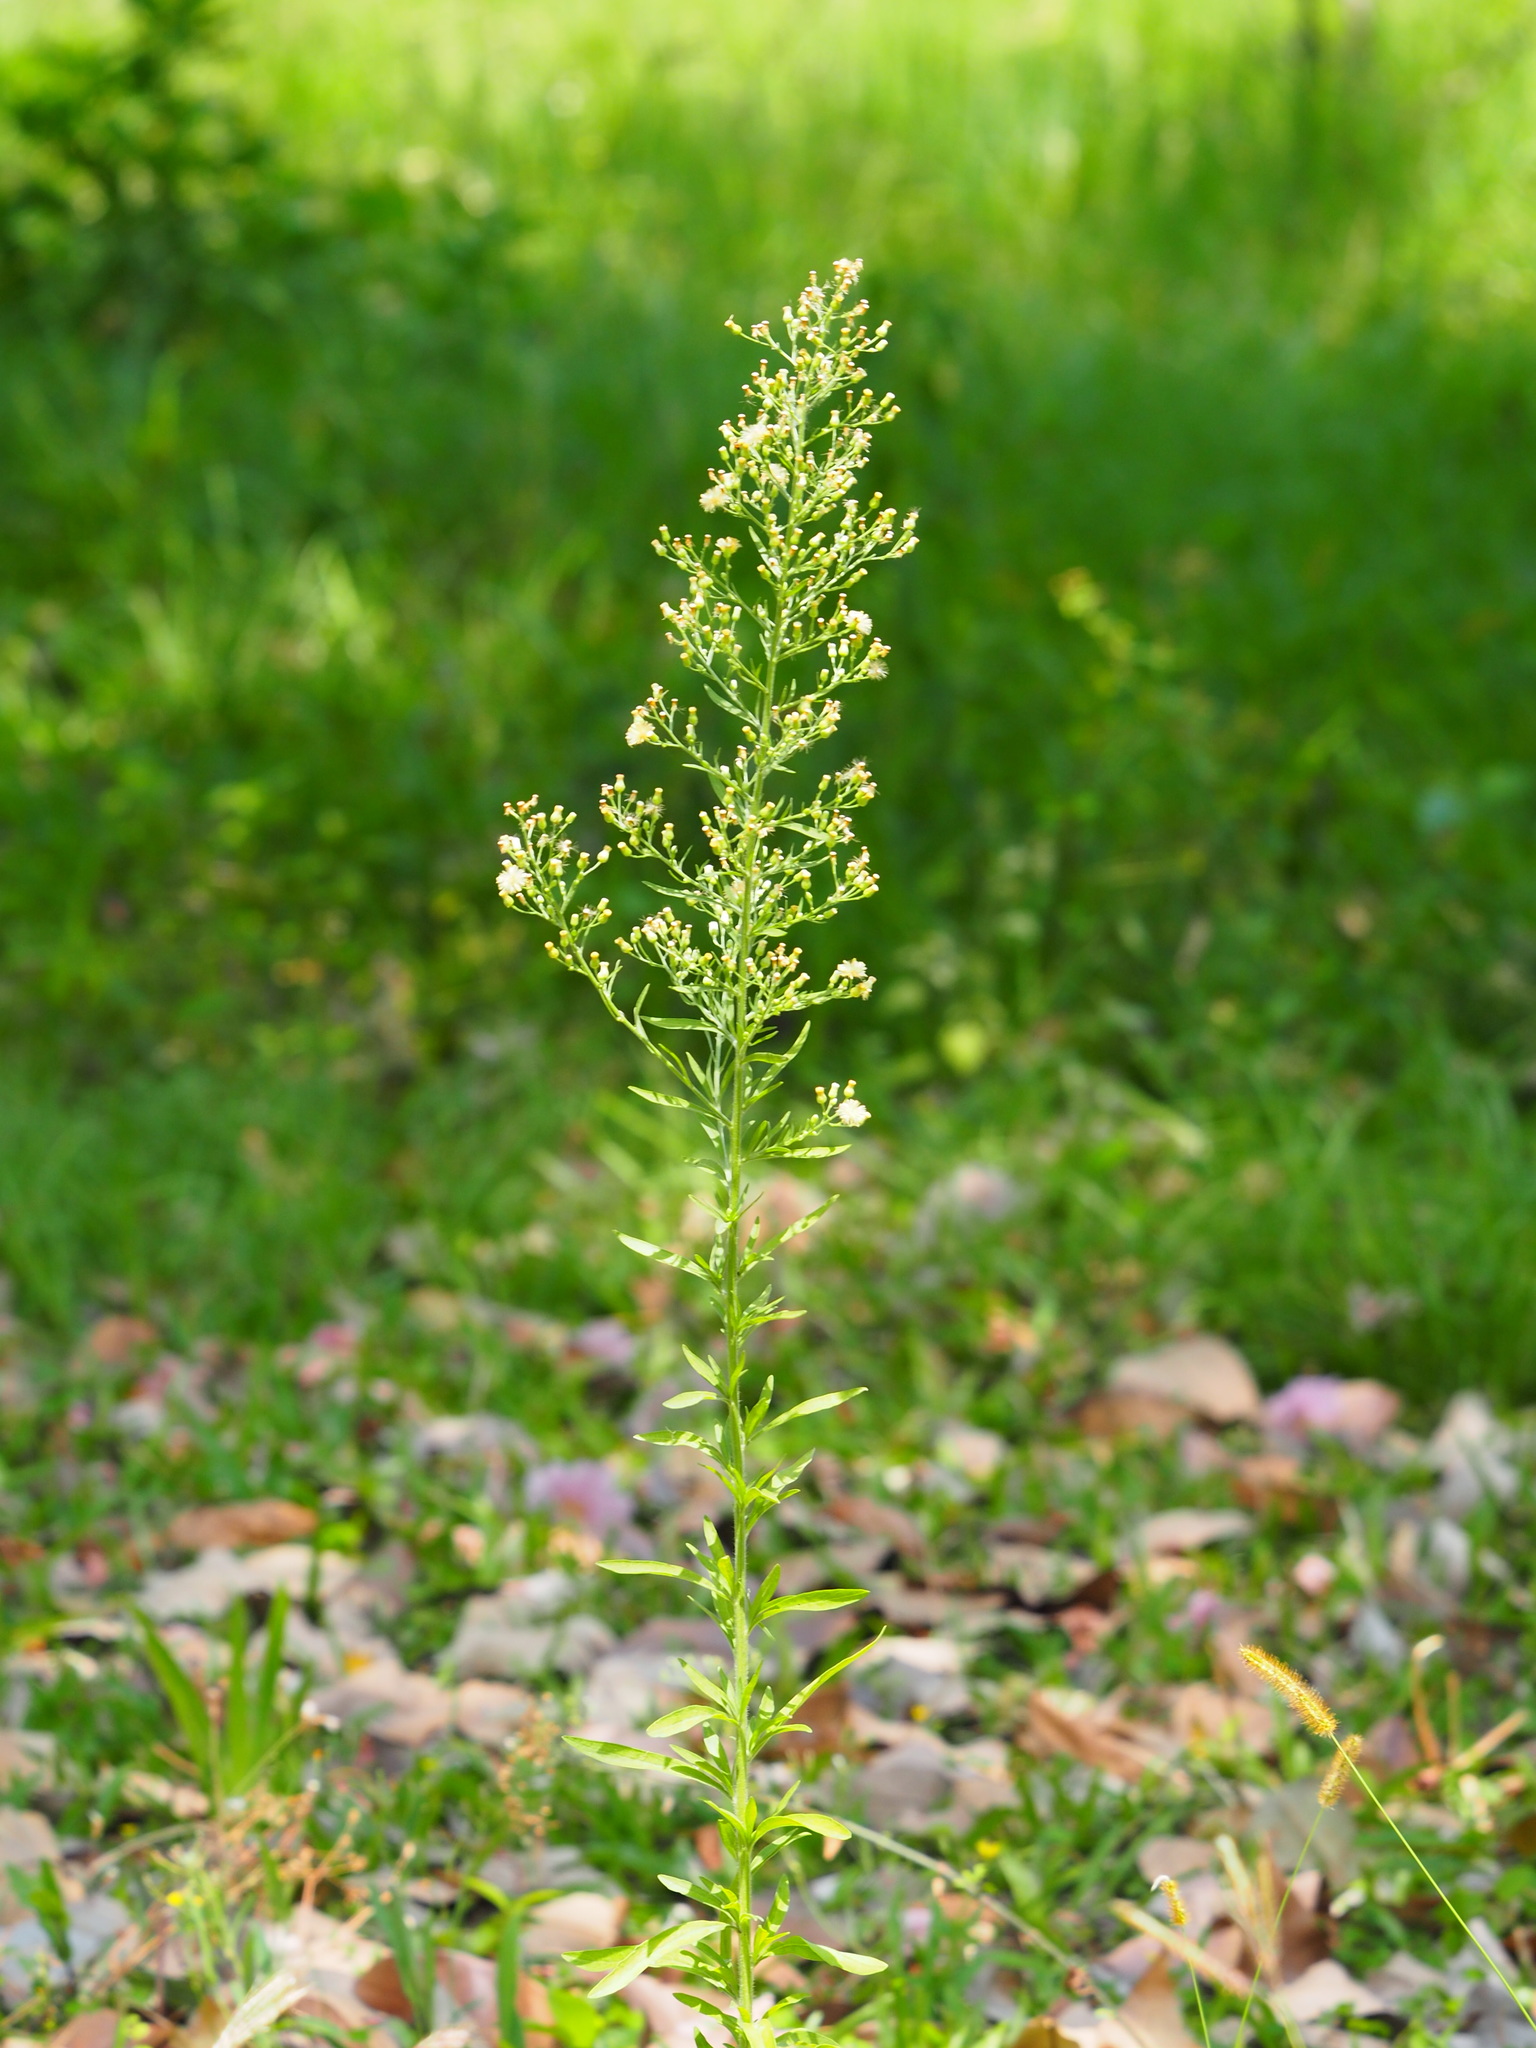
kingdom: Plantae
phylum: Tracheophyta
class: Magnoliopsida
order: Asterales
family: Asteraceae
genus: Erigeron
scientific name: Erigeron sumatrensis
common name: Daisy
